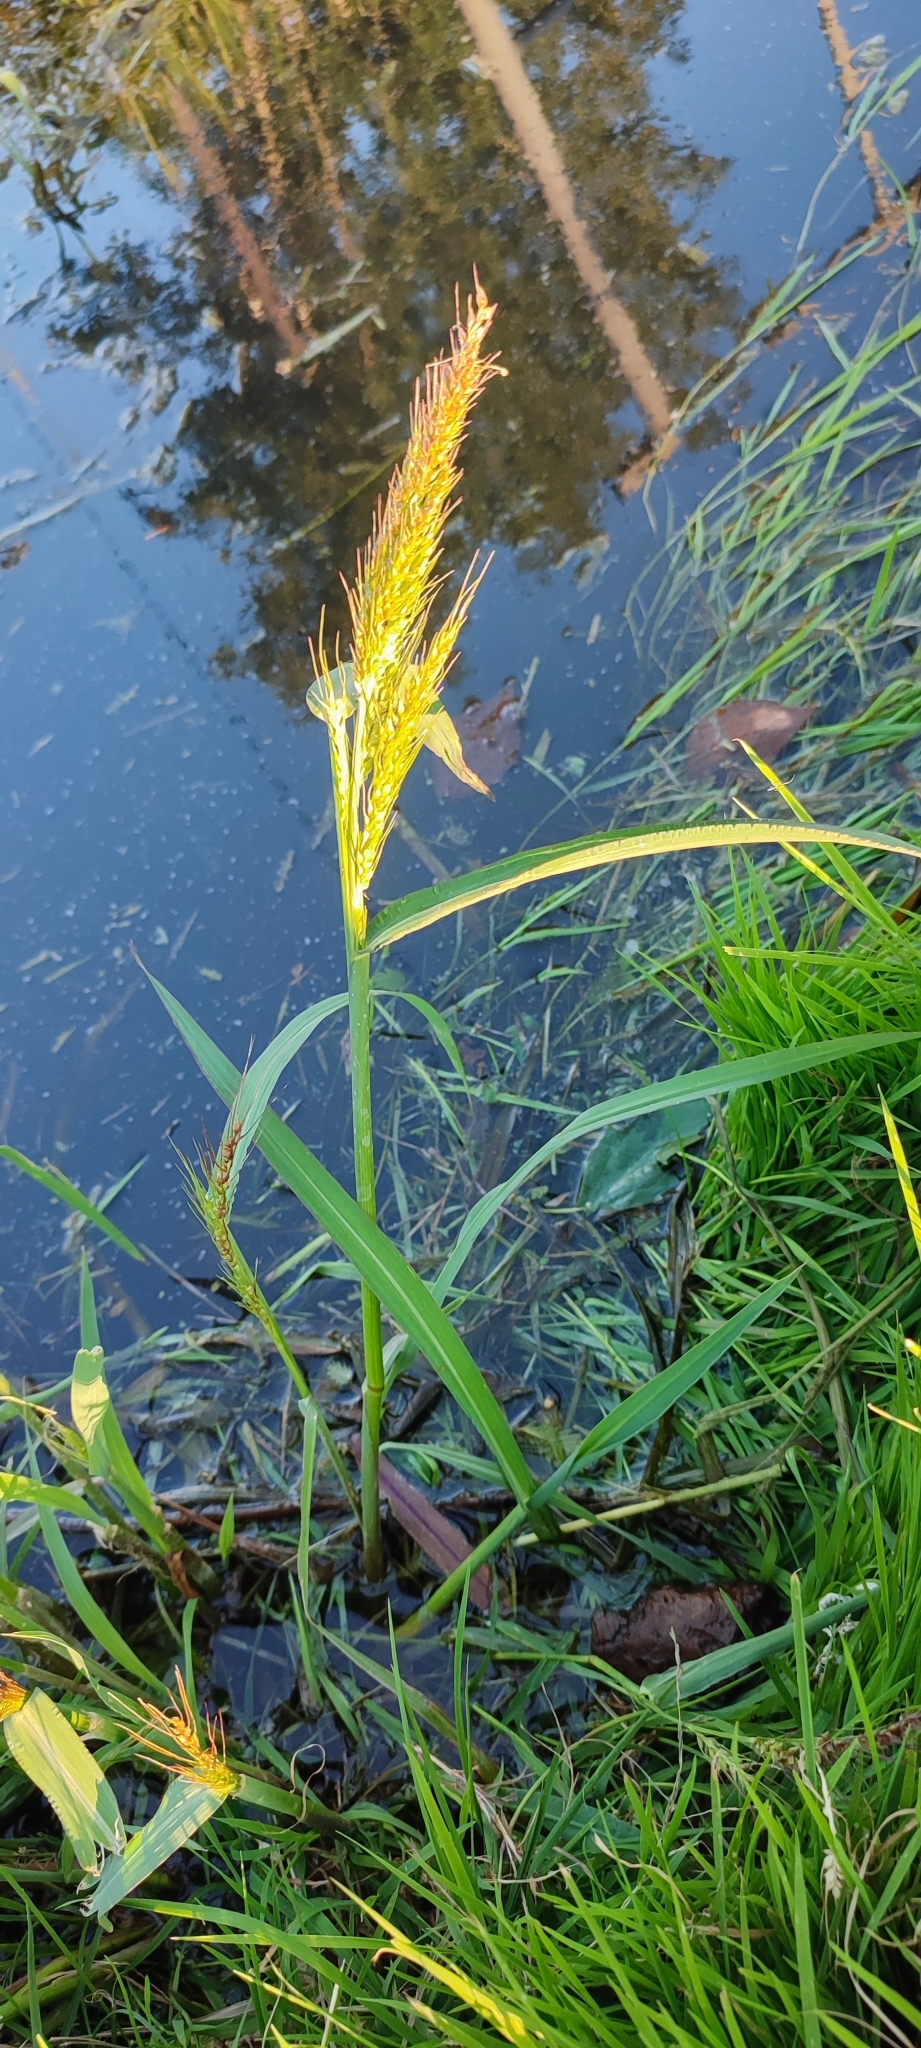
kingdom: Plantae
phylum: Tracheophyta
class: Liliopsida
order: Poales
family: Poaceae
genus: Echinochloa
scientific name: Echinochloa crus-galli
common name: Cockspur
